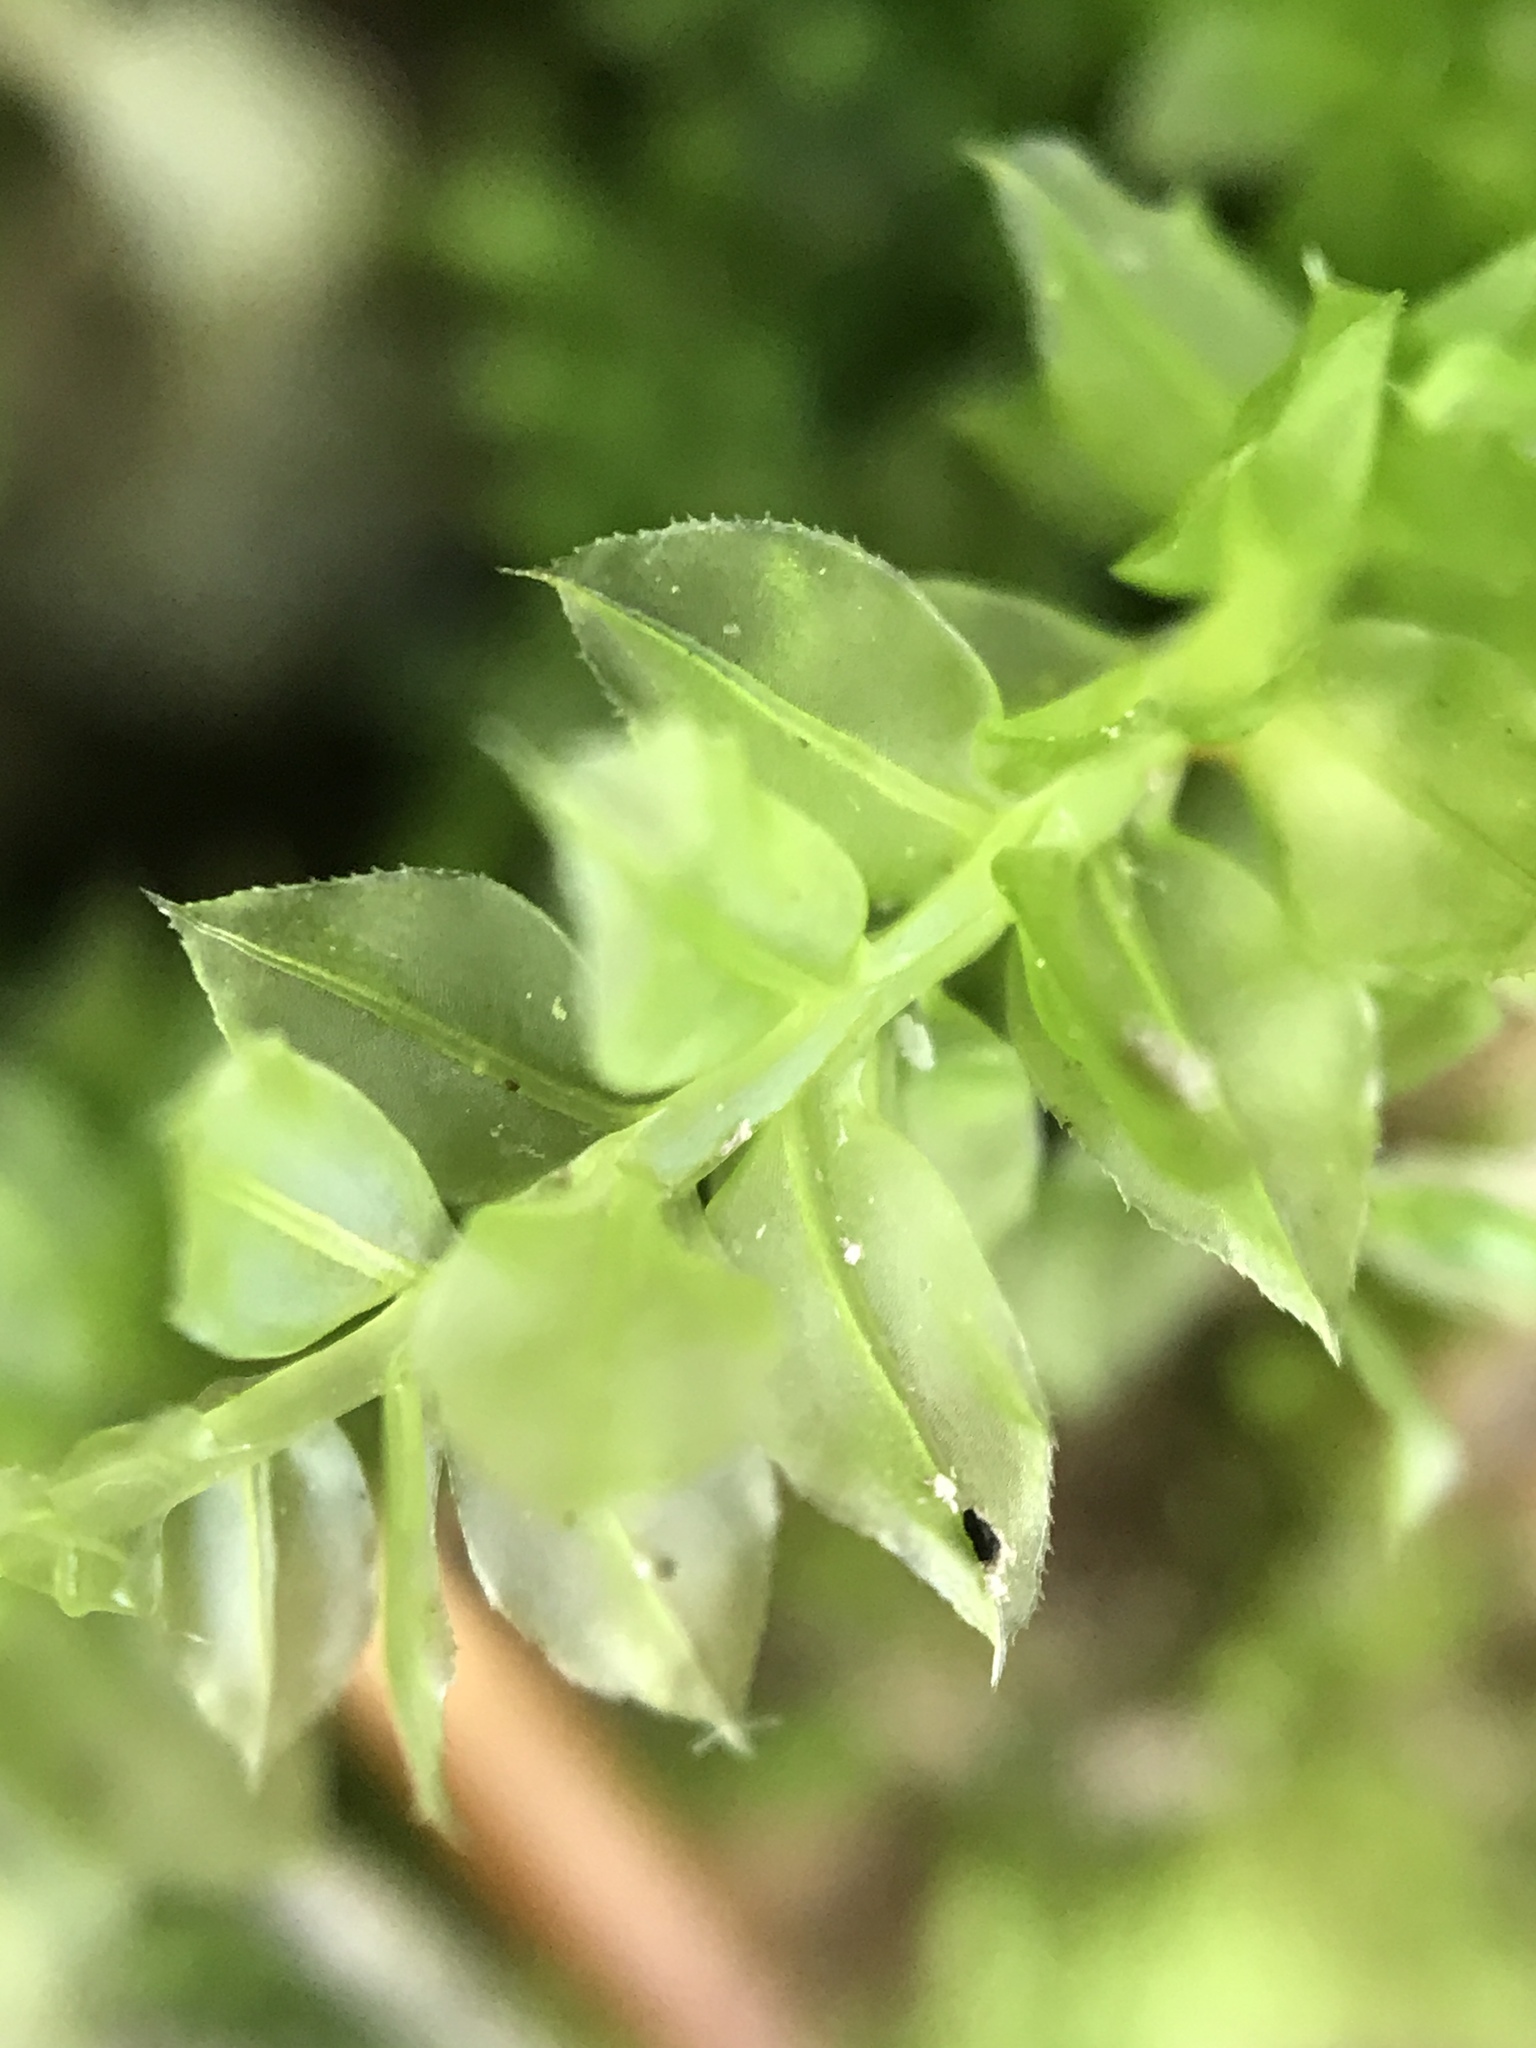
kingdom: Plantae
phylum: Bryophyta
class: Bryopsida
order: Bryales
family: Mniaceae
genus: Plagiomnium
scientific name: Plagiomnium cuspidatum
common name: Woodsy leafy moss
